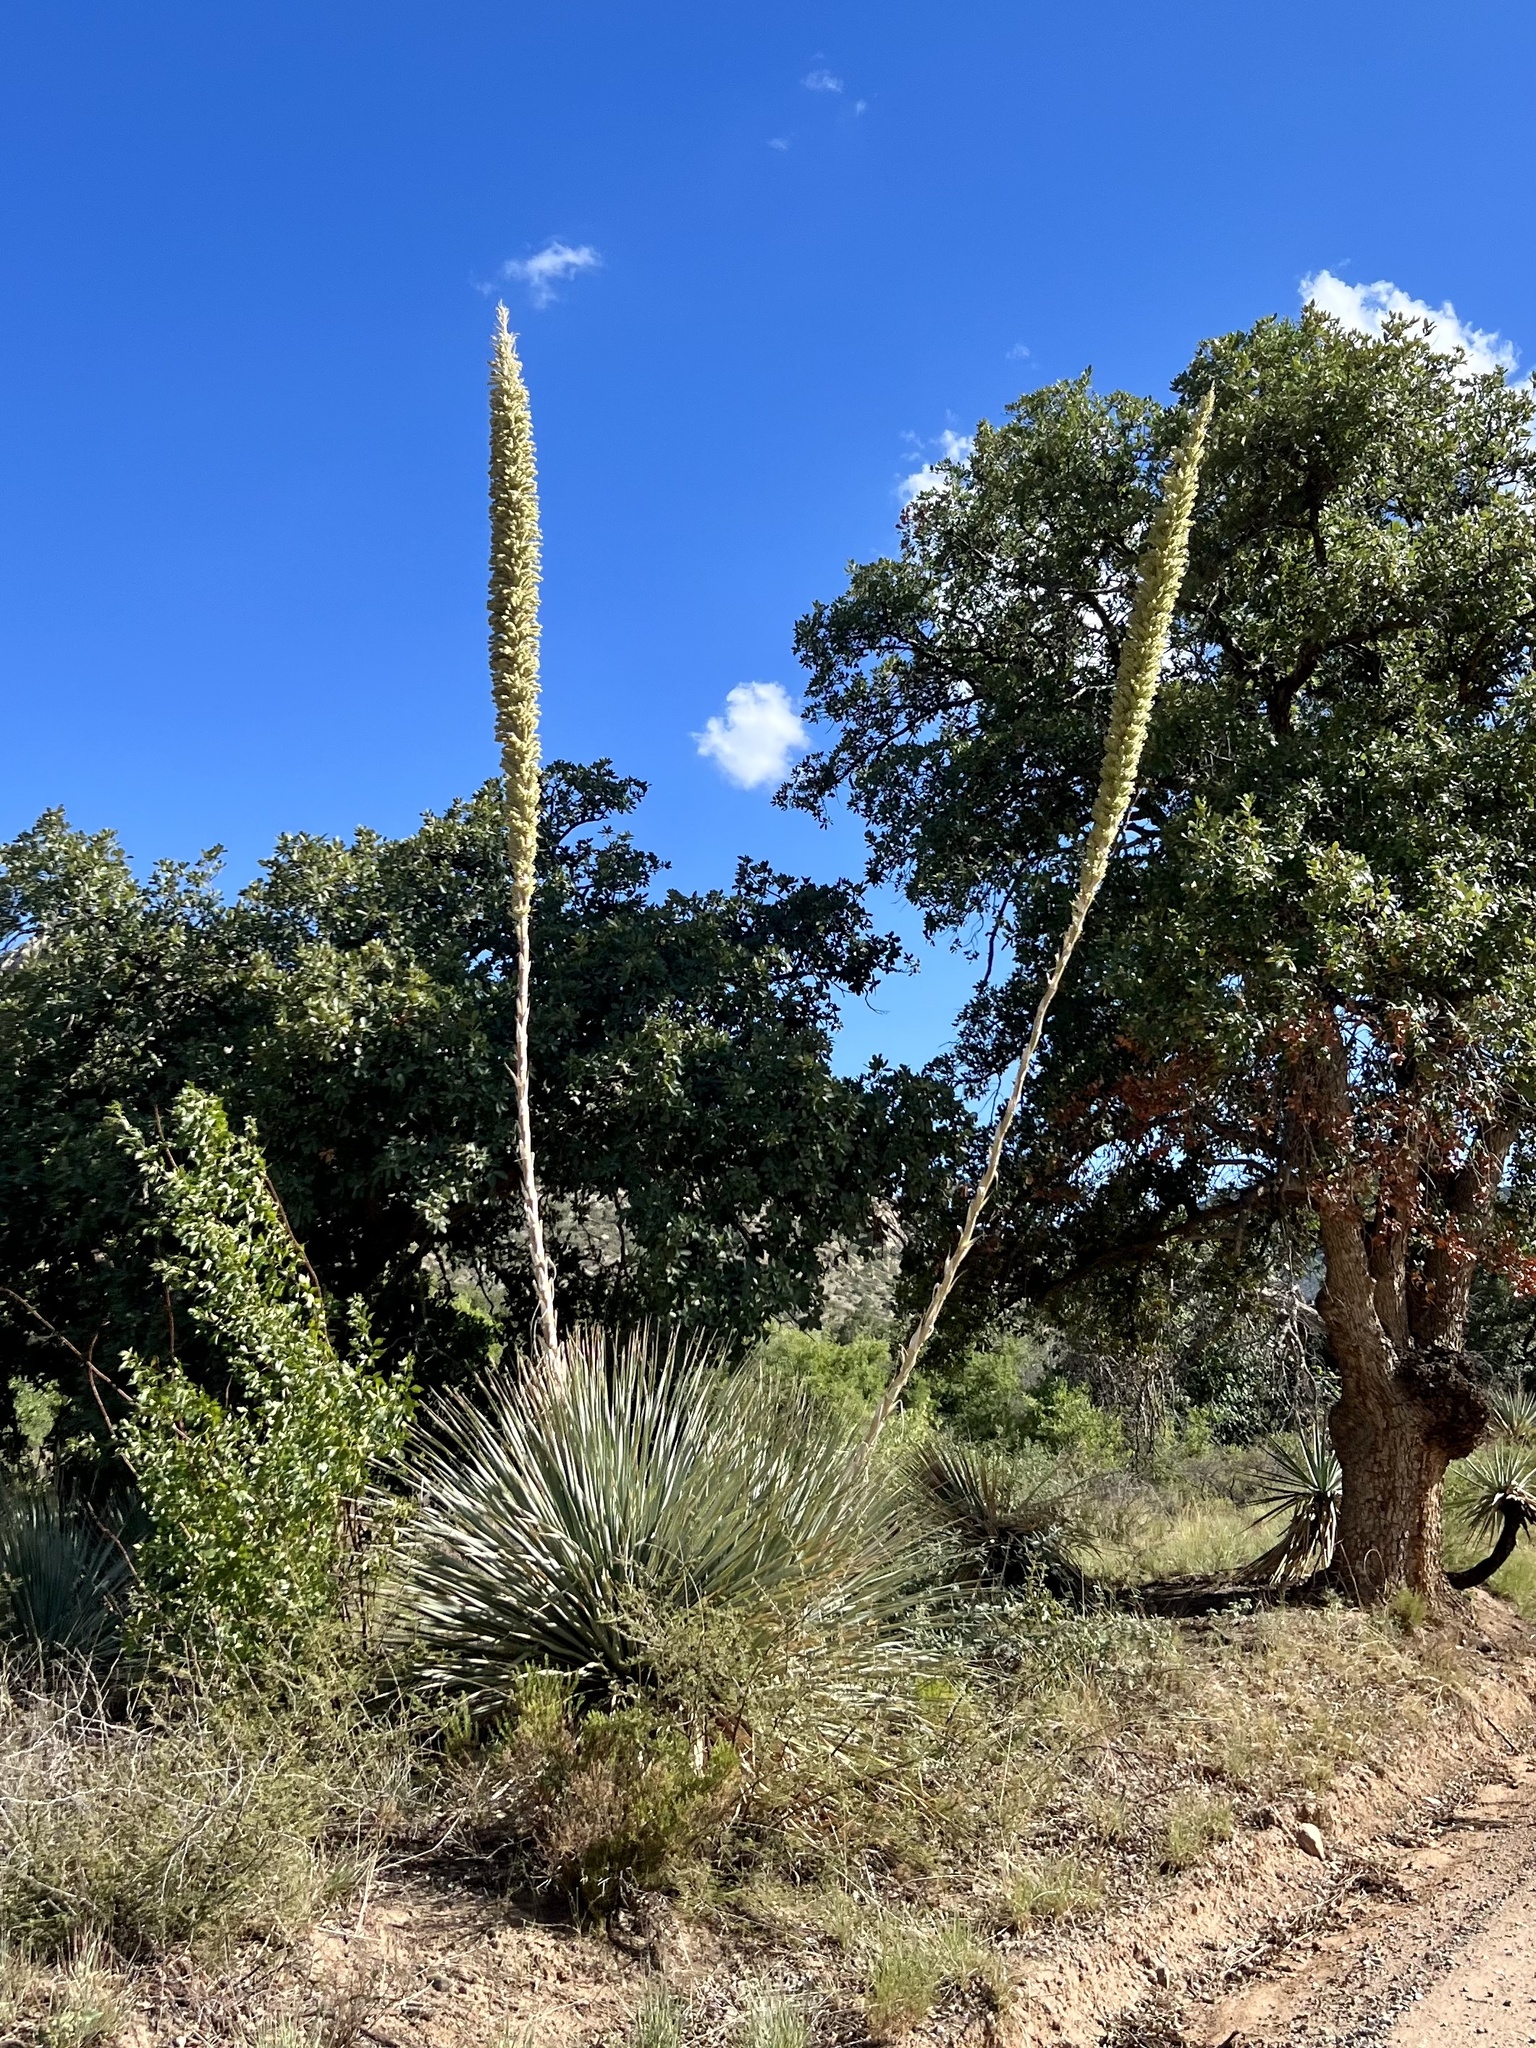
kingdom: Plantae
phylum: Tracheophyta
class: Liliopsida
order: Asparagales
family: Asparagaceae
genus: Dasylirion
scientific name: Dasylirion wheeleri
